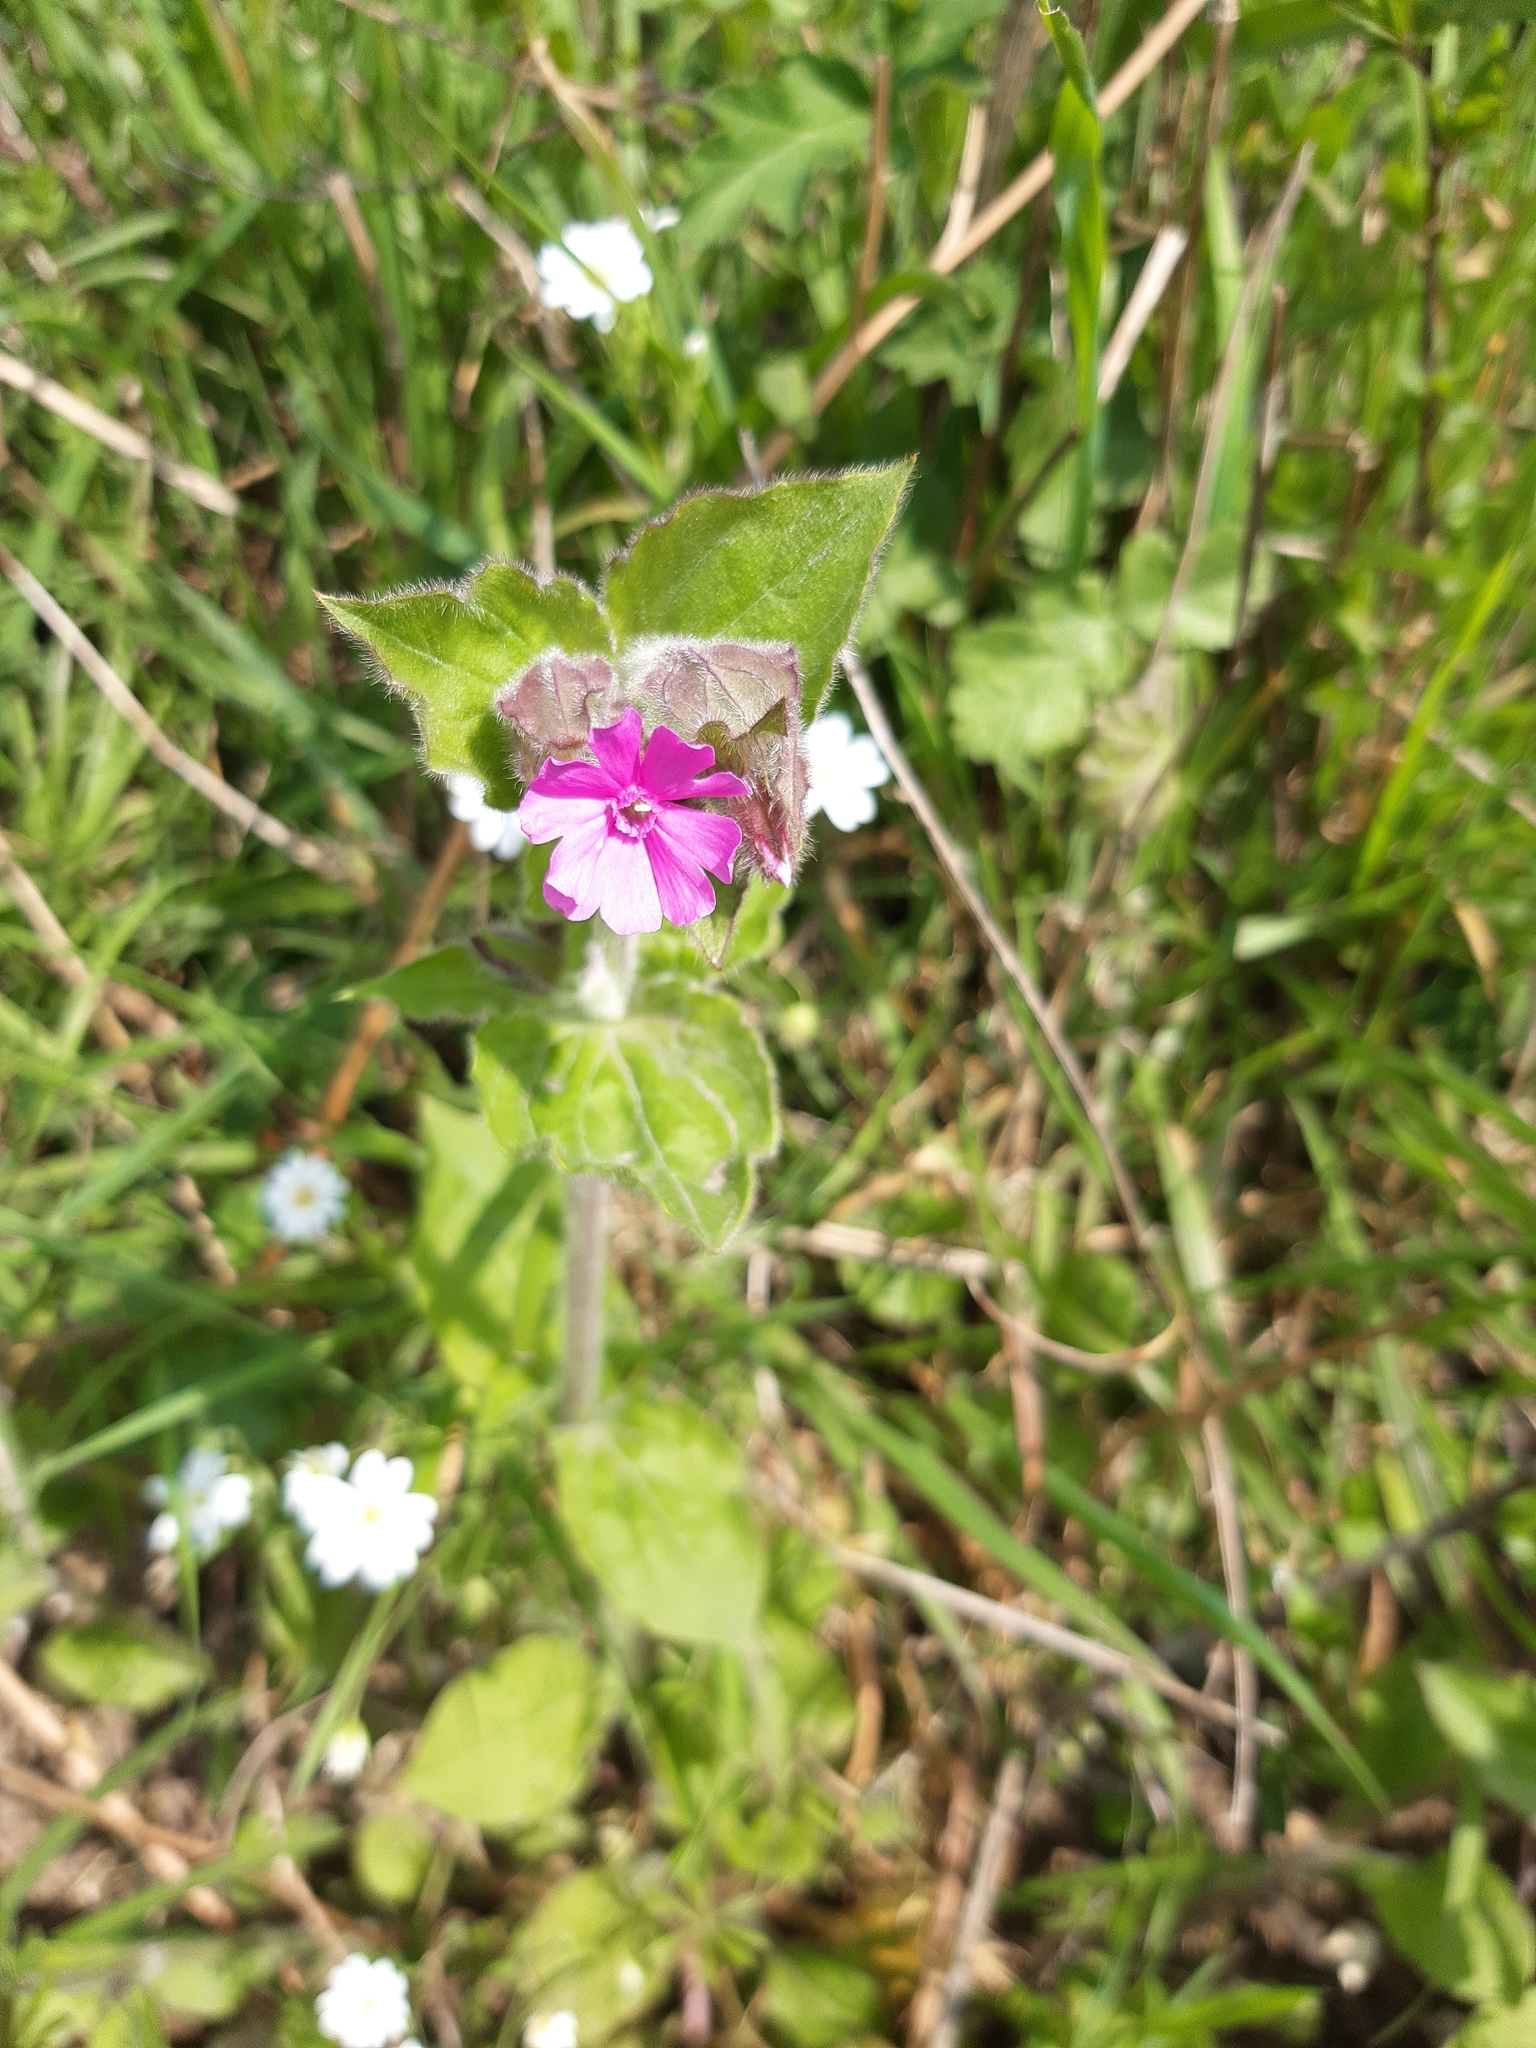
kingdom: Plantae
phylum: Tracheophyta
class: Magnoliopsida
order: Caryophyllales
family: Caryophyllaceae
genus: Silene
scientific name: Silene dioica
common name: Red campion
